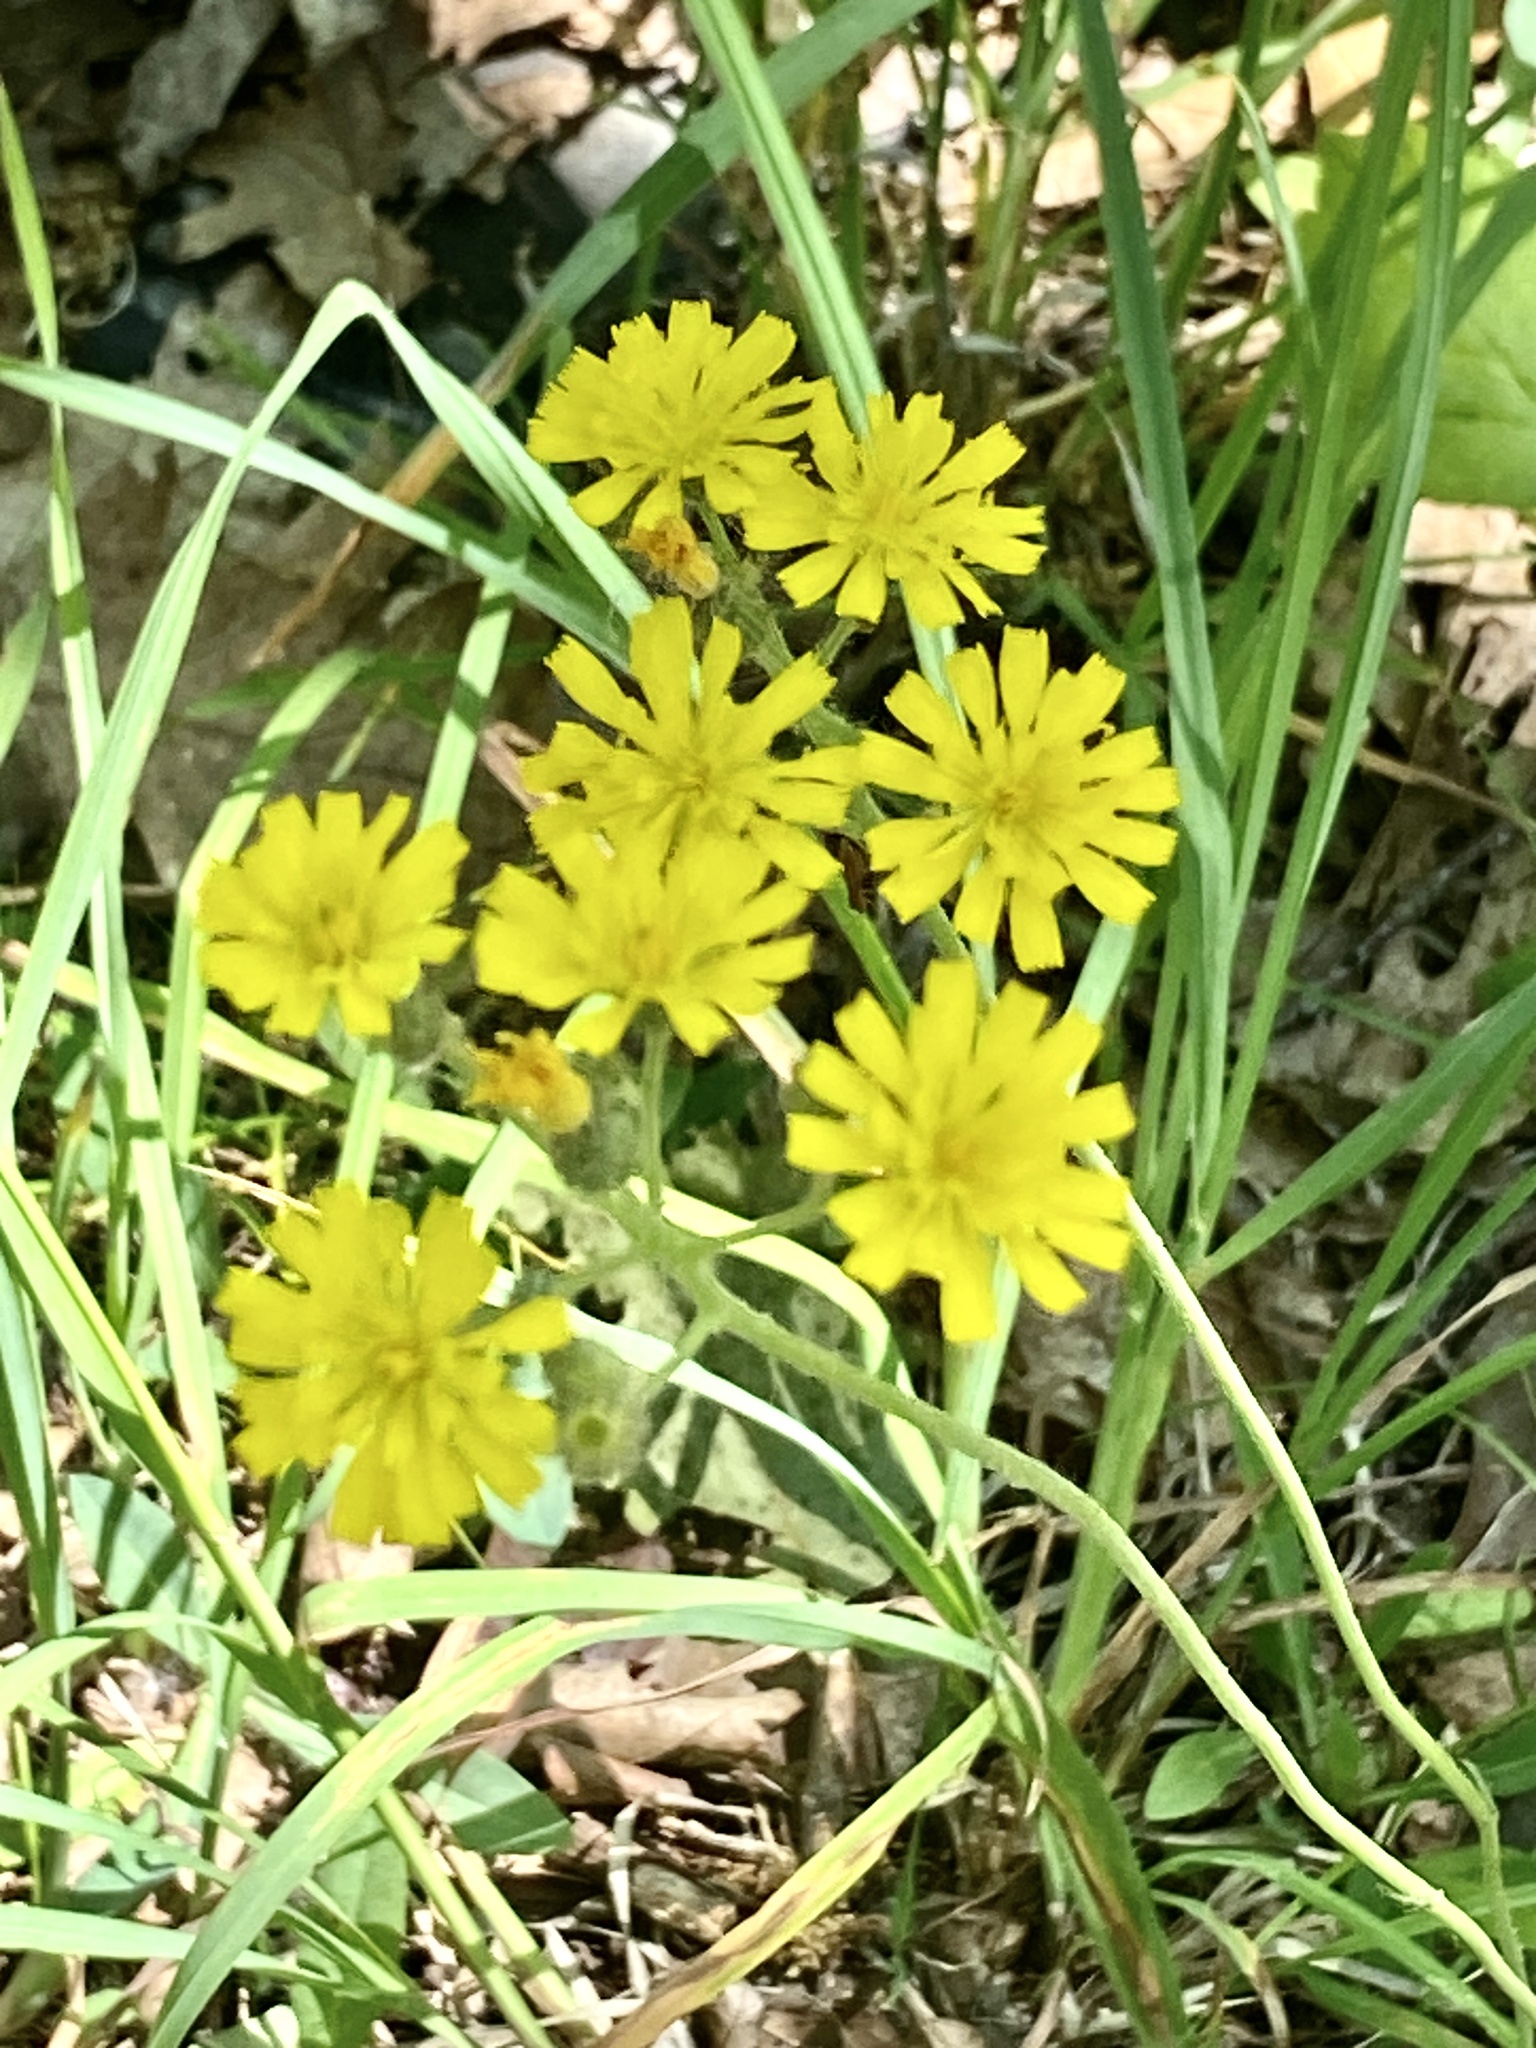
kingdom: Plantae
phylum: Tracheophyta
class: Magnoliopsida
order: Asterales
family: Asteraceae
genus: Pilosella
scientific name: Pilosella caespitosa
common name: Yellow fox-and-cubs
